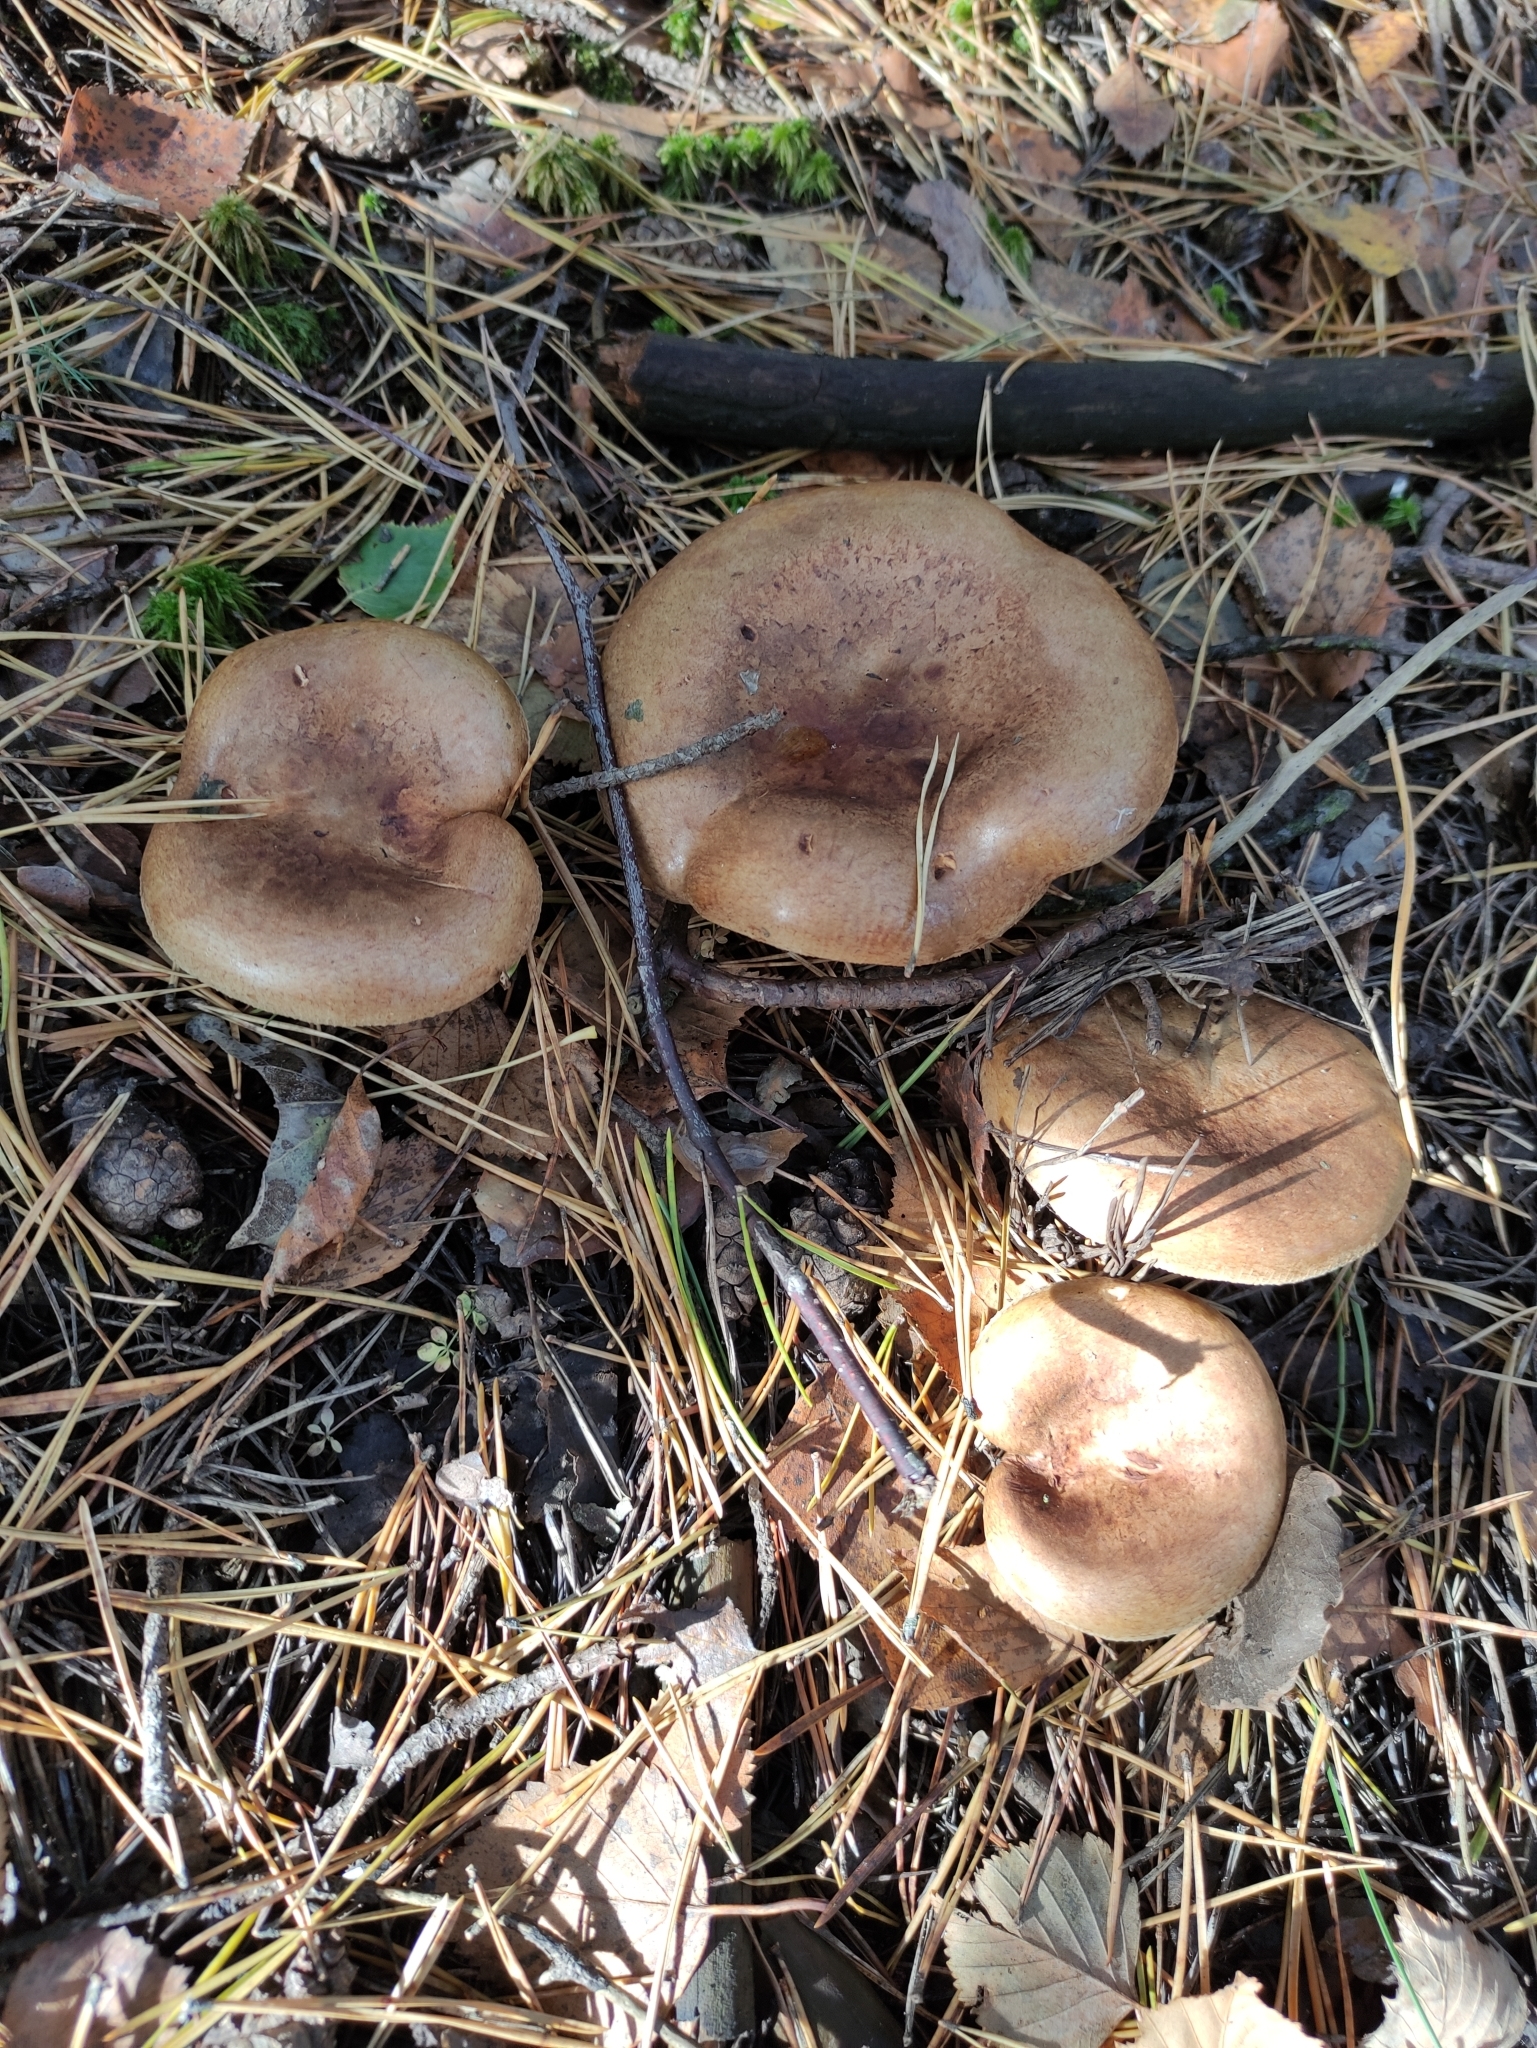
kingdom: Fungi
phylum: Basidiomycota
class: Agaricomycetes
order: Boletales
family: Paxillaceae
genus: Paxillus
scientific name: Paxillus involutus
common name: Brown roll rim
